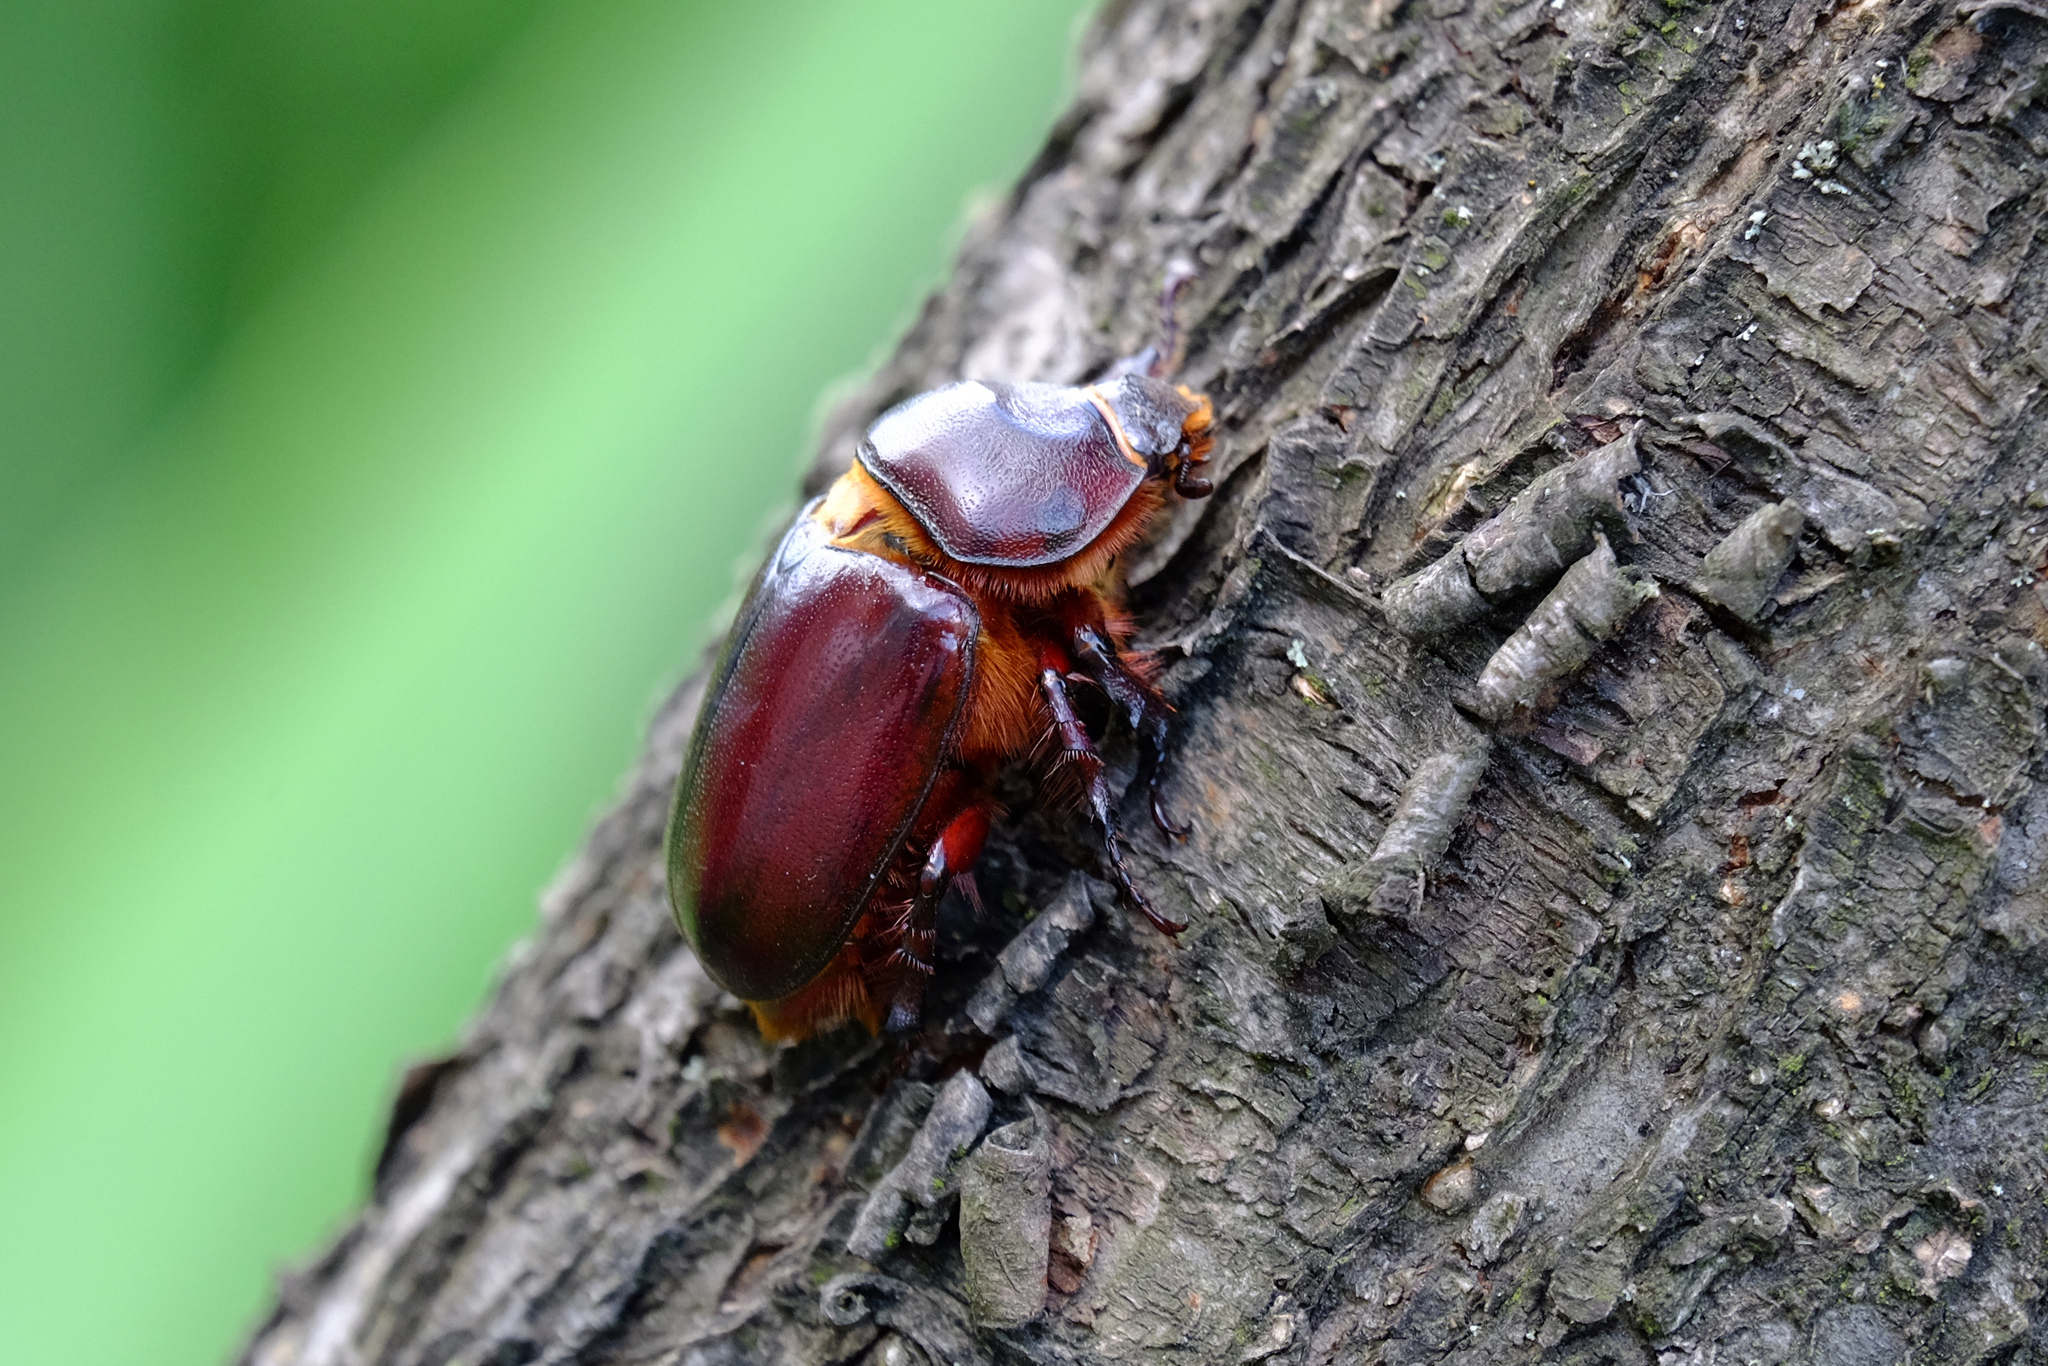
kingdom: Animalia
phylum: Arthropoda
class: Insecta
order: Coleoptera
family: Scarabaeidae
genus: Oryctes
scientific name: Oryctes nasicornis
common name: European rhinoceros beetle
